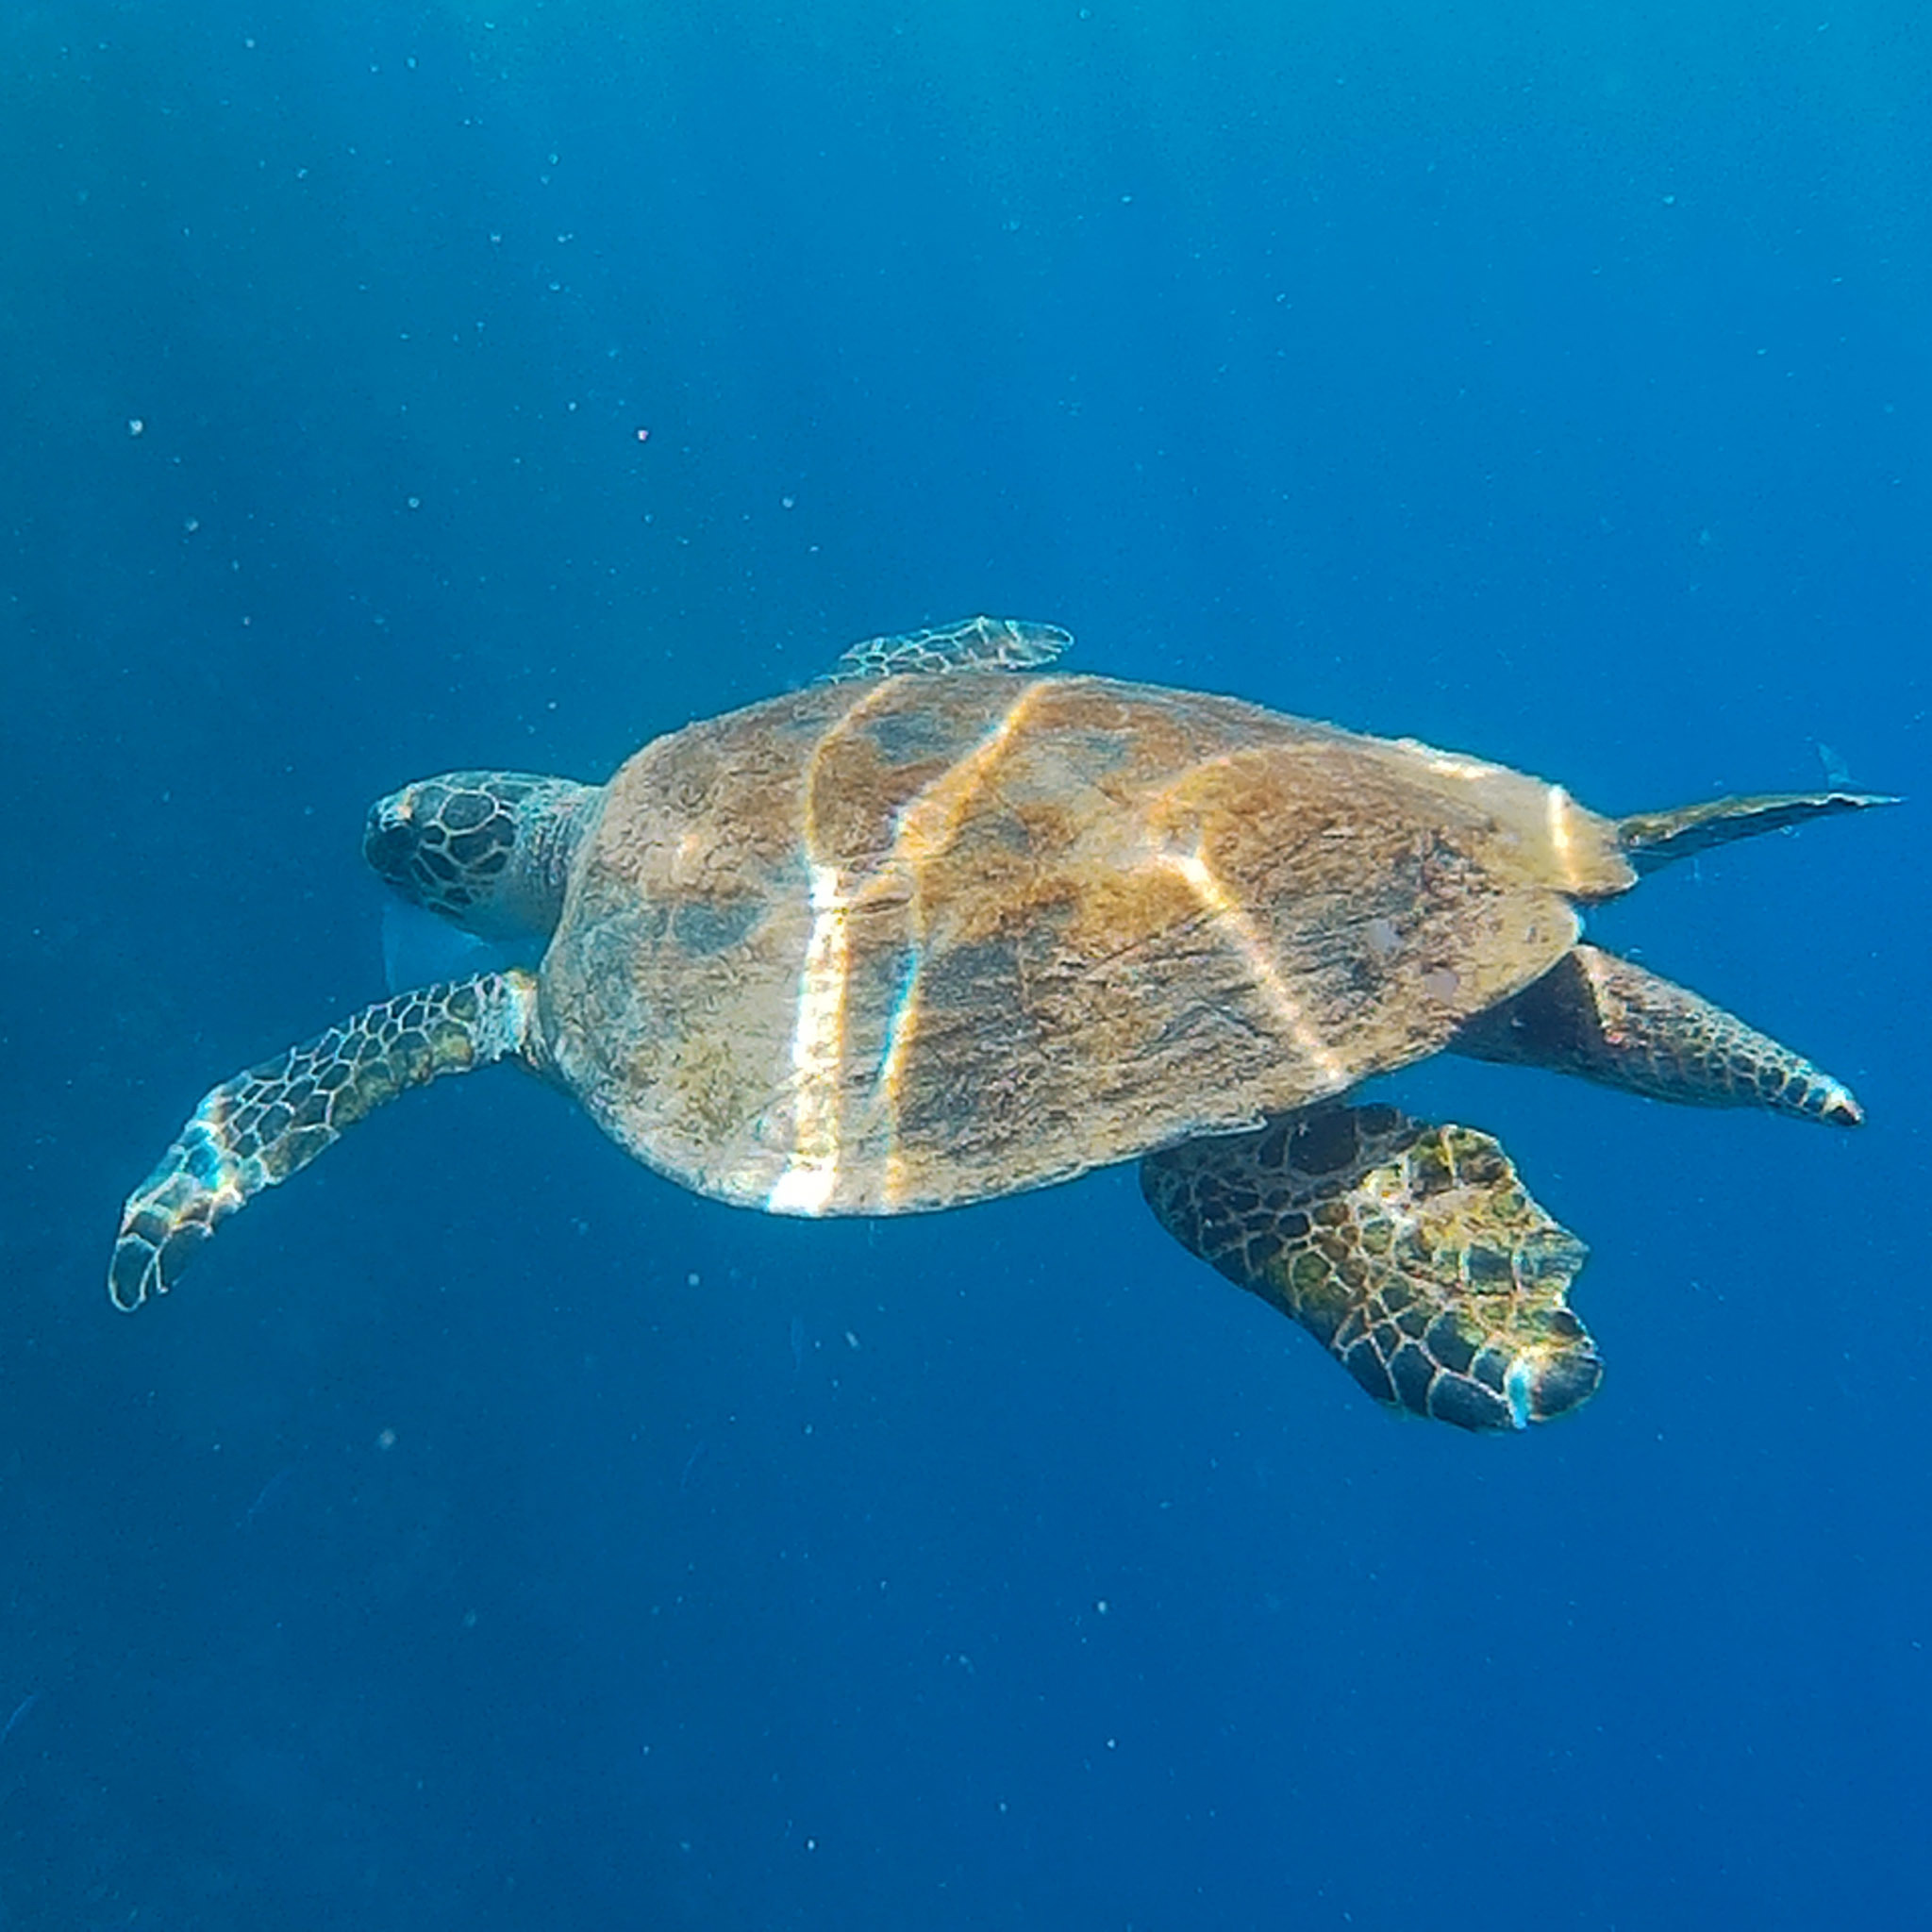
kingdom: Animalia
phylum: Chordata
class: Testudines
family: Cheloniidae
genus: Eretmochelys
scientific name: Eretmochelys imbricata
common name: Hawksbill turtle
